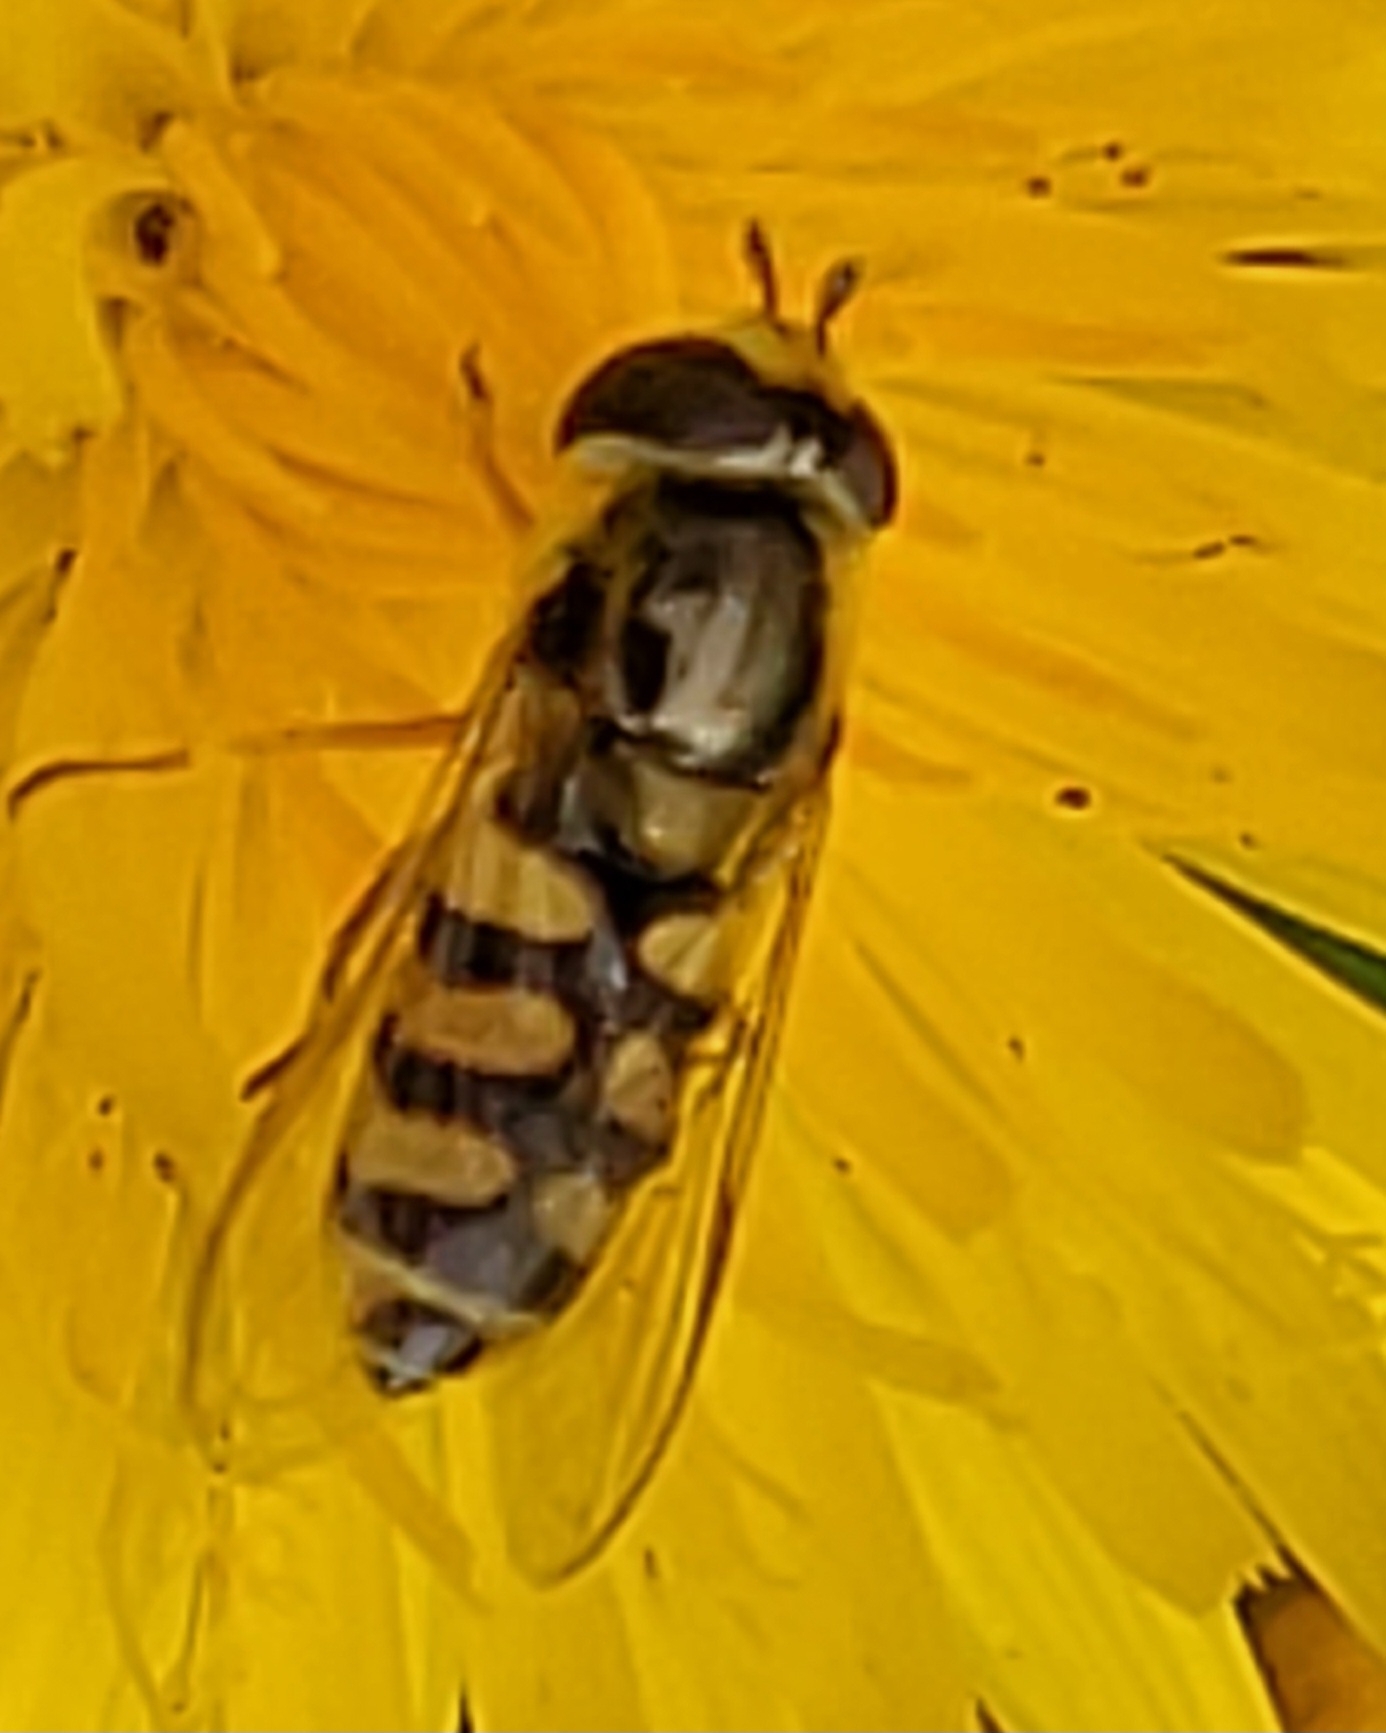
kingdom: Animalia
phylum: Arthropoda
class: Insecta
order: Diptera
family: Syrphidae
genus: Eupeodes
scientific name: Eupeodes corollae
